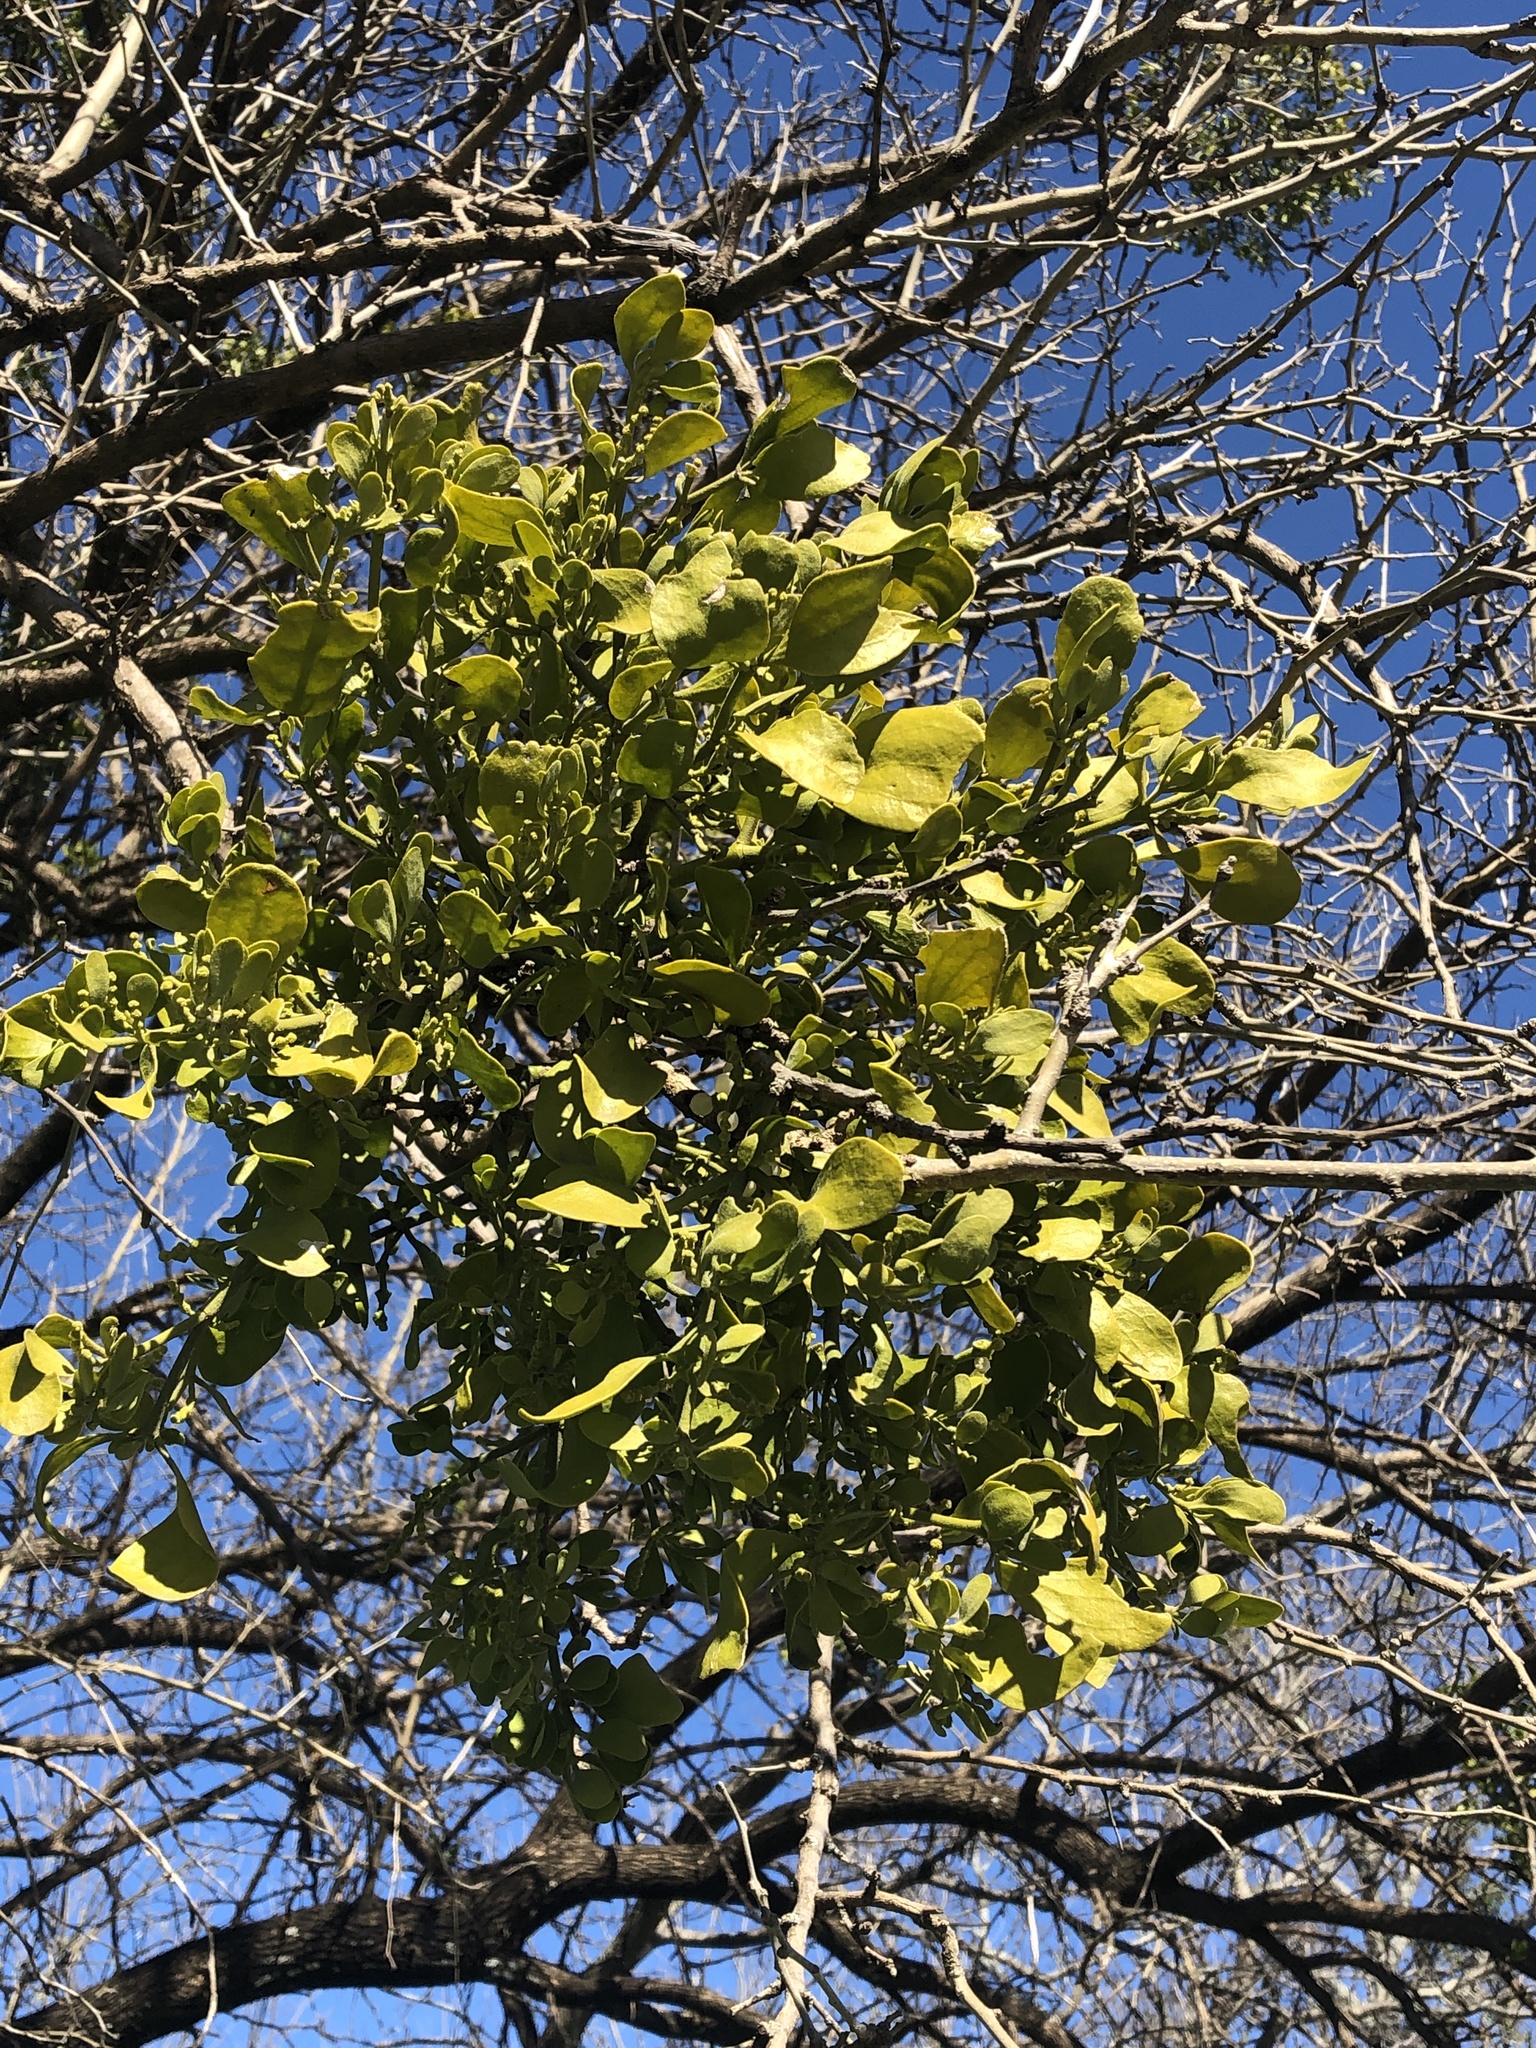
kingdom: Plantae
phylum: Tracheophyta
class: Magnoliopsida
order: Santalales
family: Viscaceae
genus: Phoradendron
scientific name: Phoradendron leucarpum
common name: Pacific mistletoe
